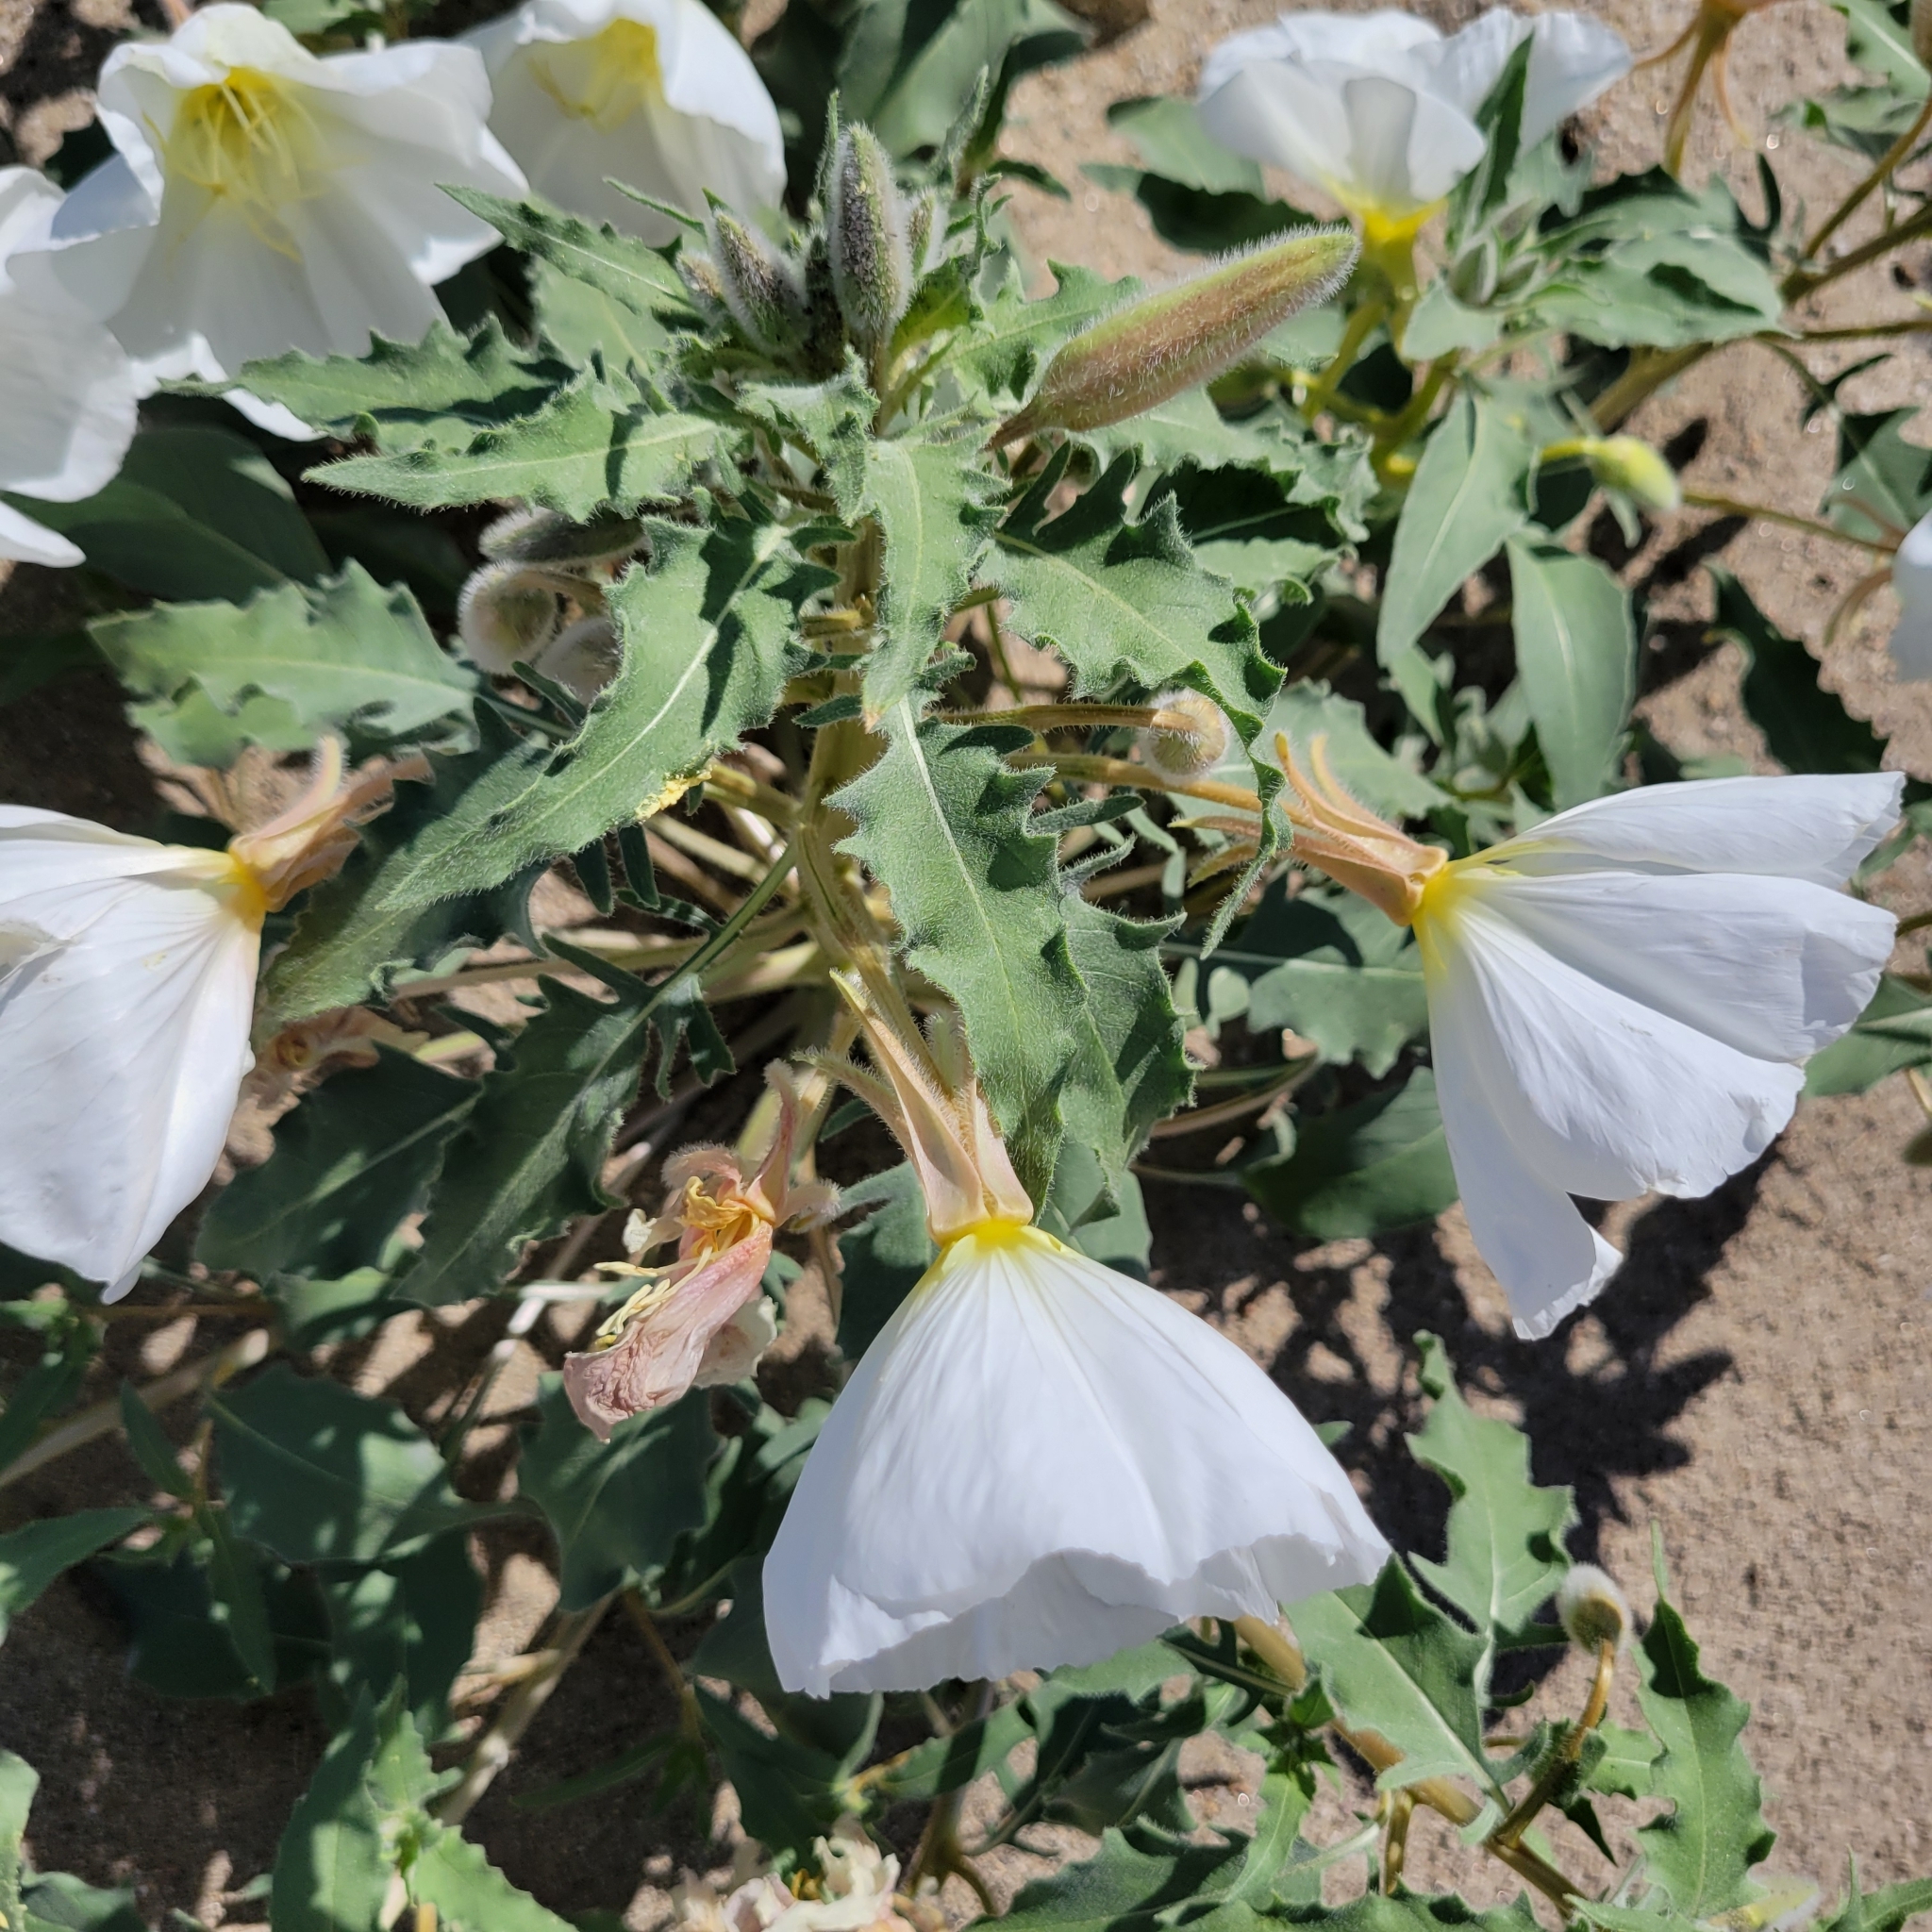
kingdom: Plantae
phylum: Tracheophyta
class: Magnoliopsida
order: Myrtales
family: Onagraceae
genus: Oenothera
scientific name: Oenothera deltoides
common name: Basket evening-primrose
